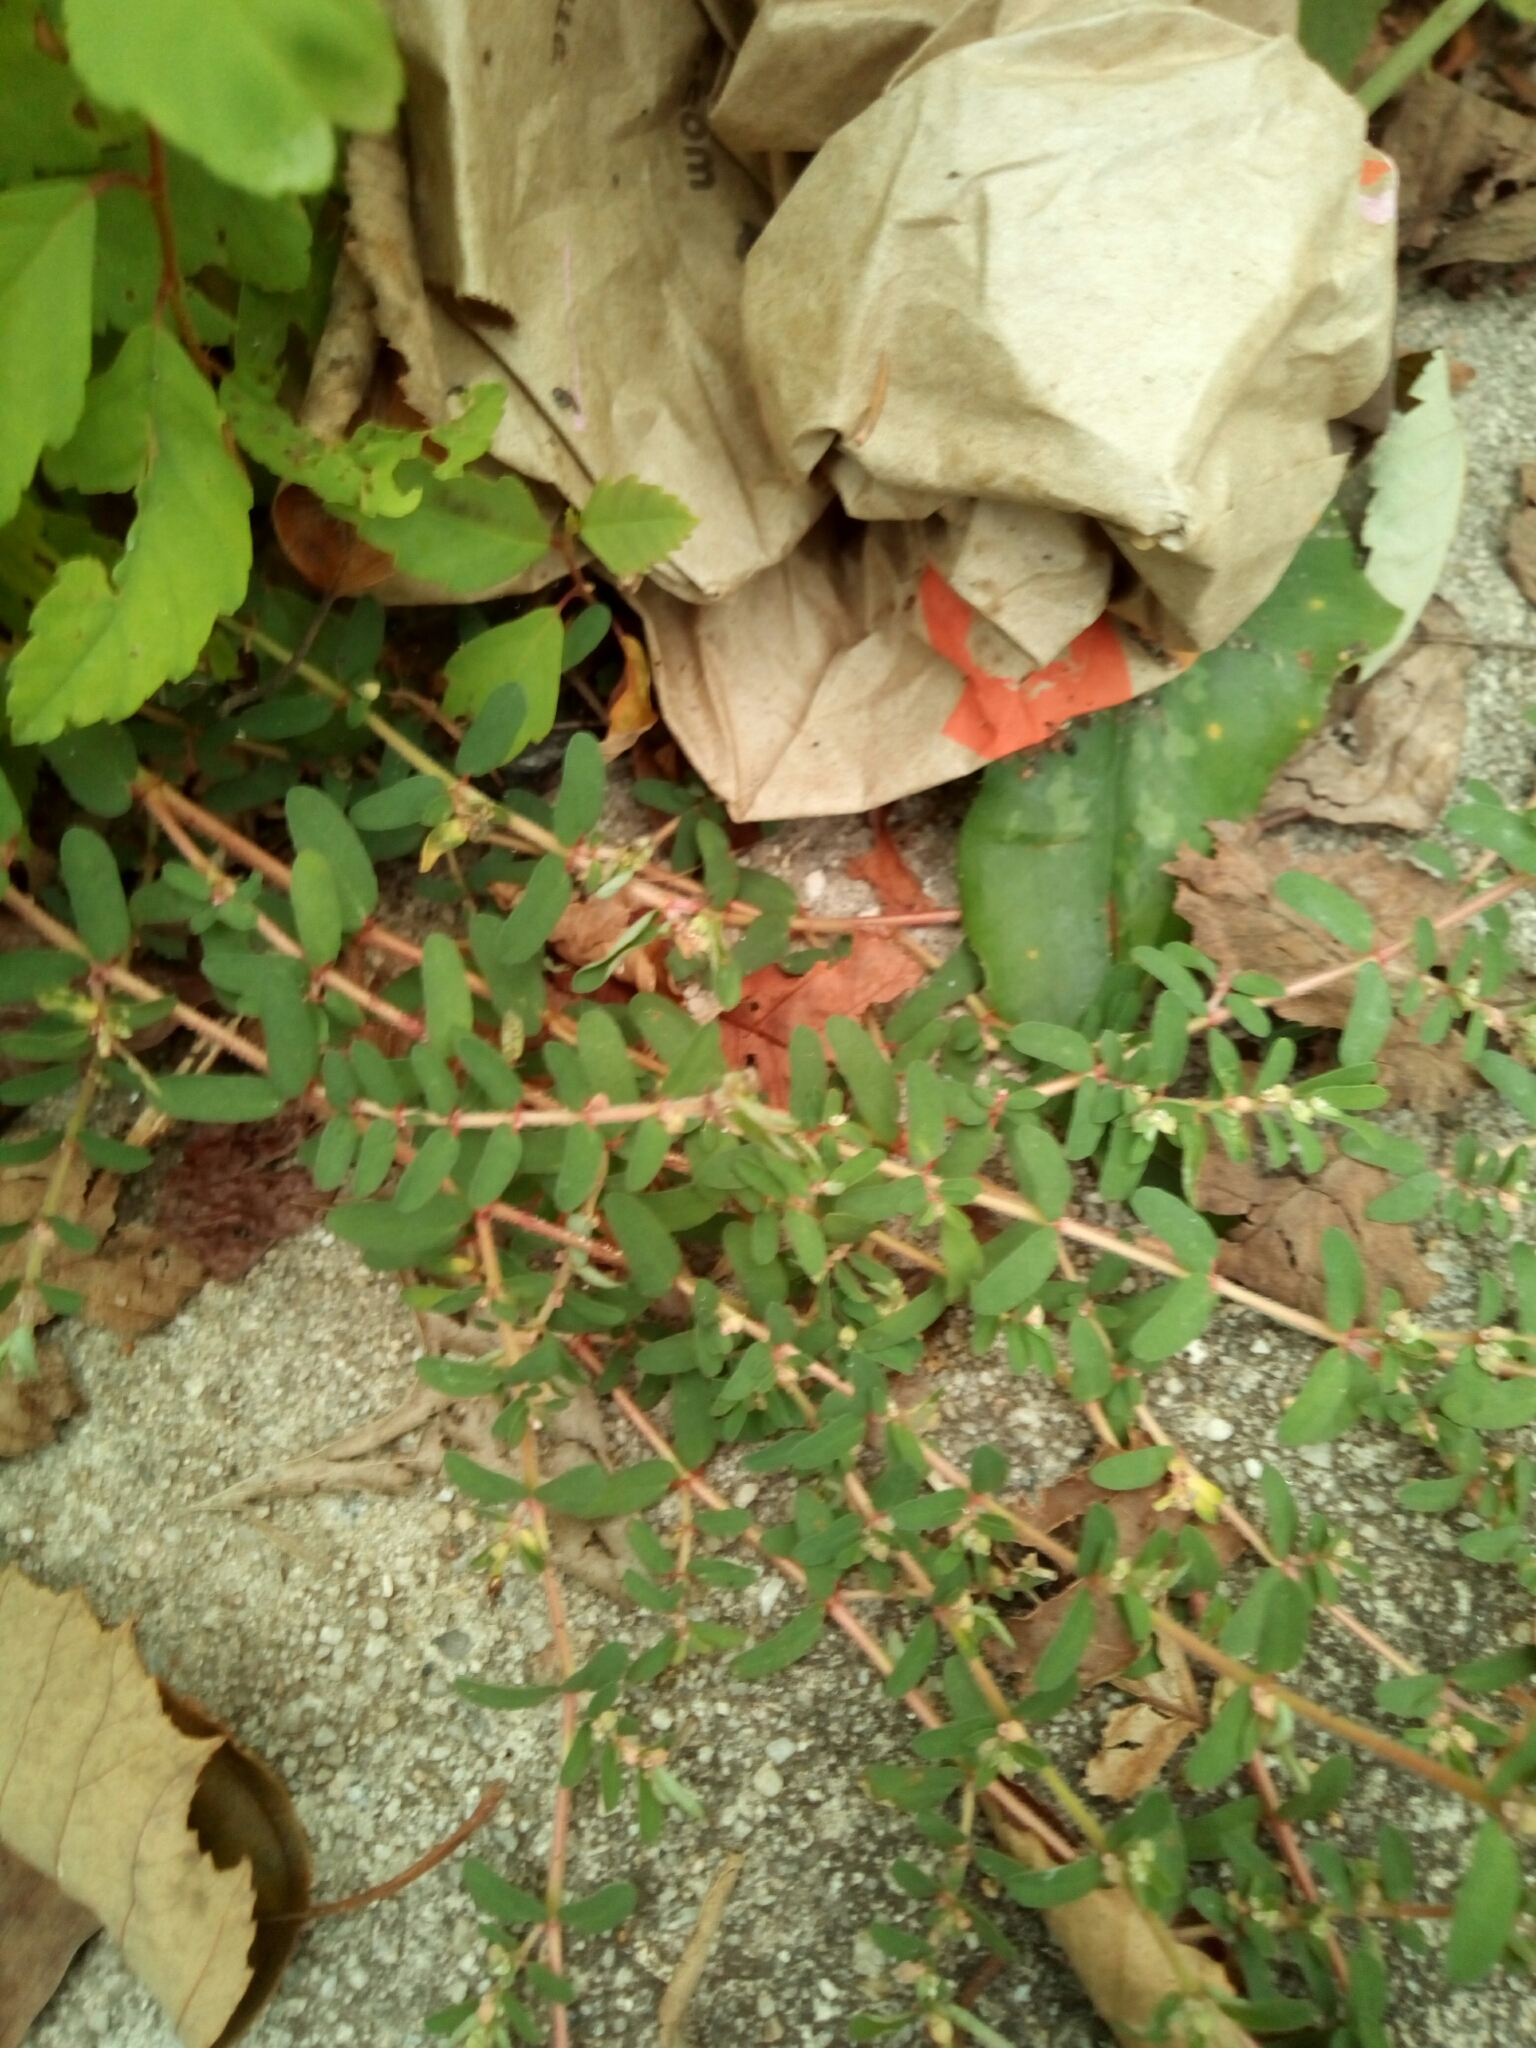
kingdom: Plantae
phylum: Tracheophyta
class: Magnoliopsida
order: Malpighiales
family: Euphorbiaceae
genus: Euphorbia
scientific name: Euphorbia maculata
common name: Spotted spurge
